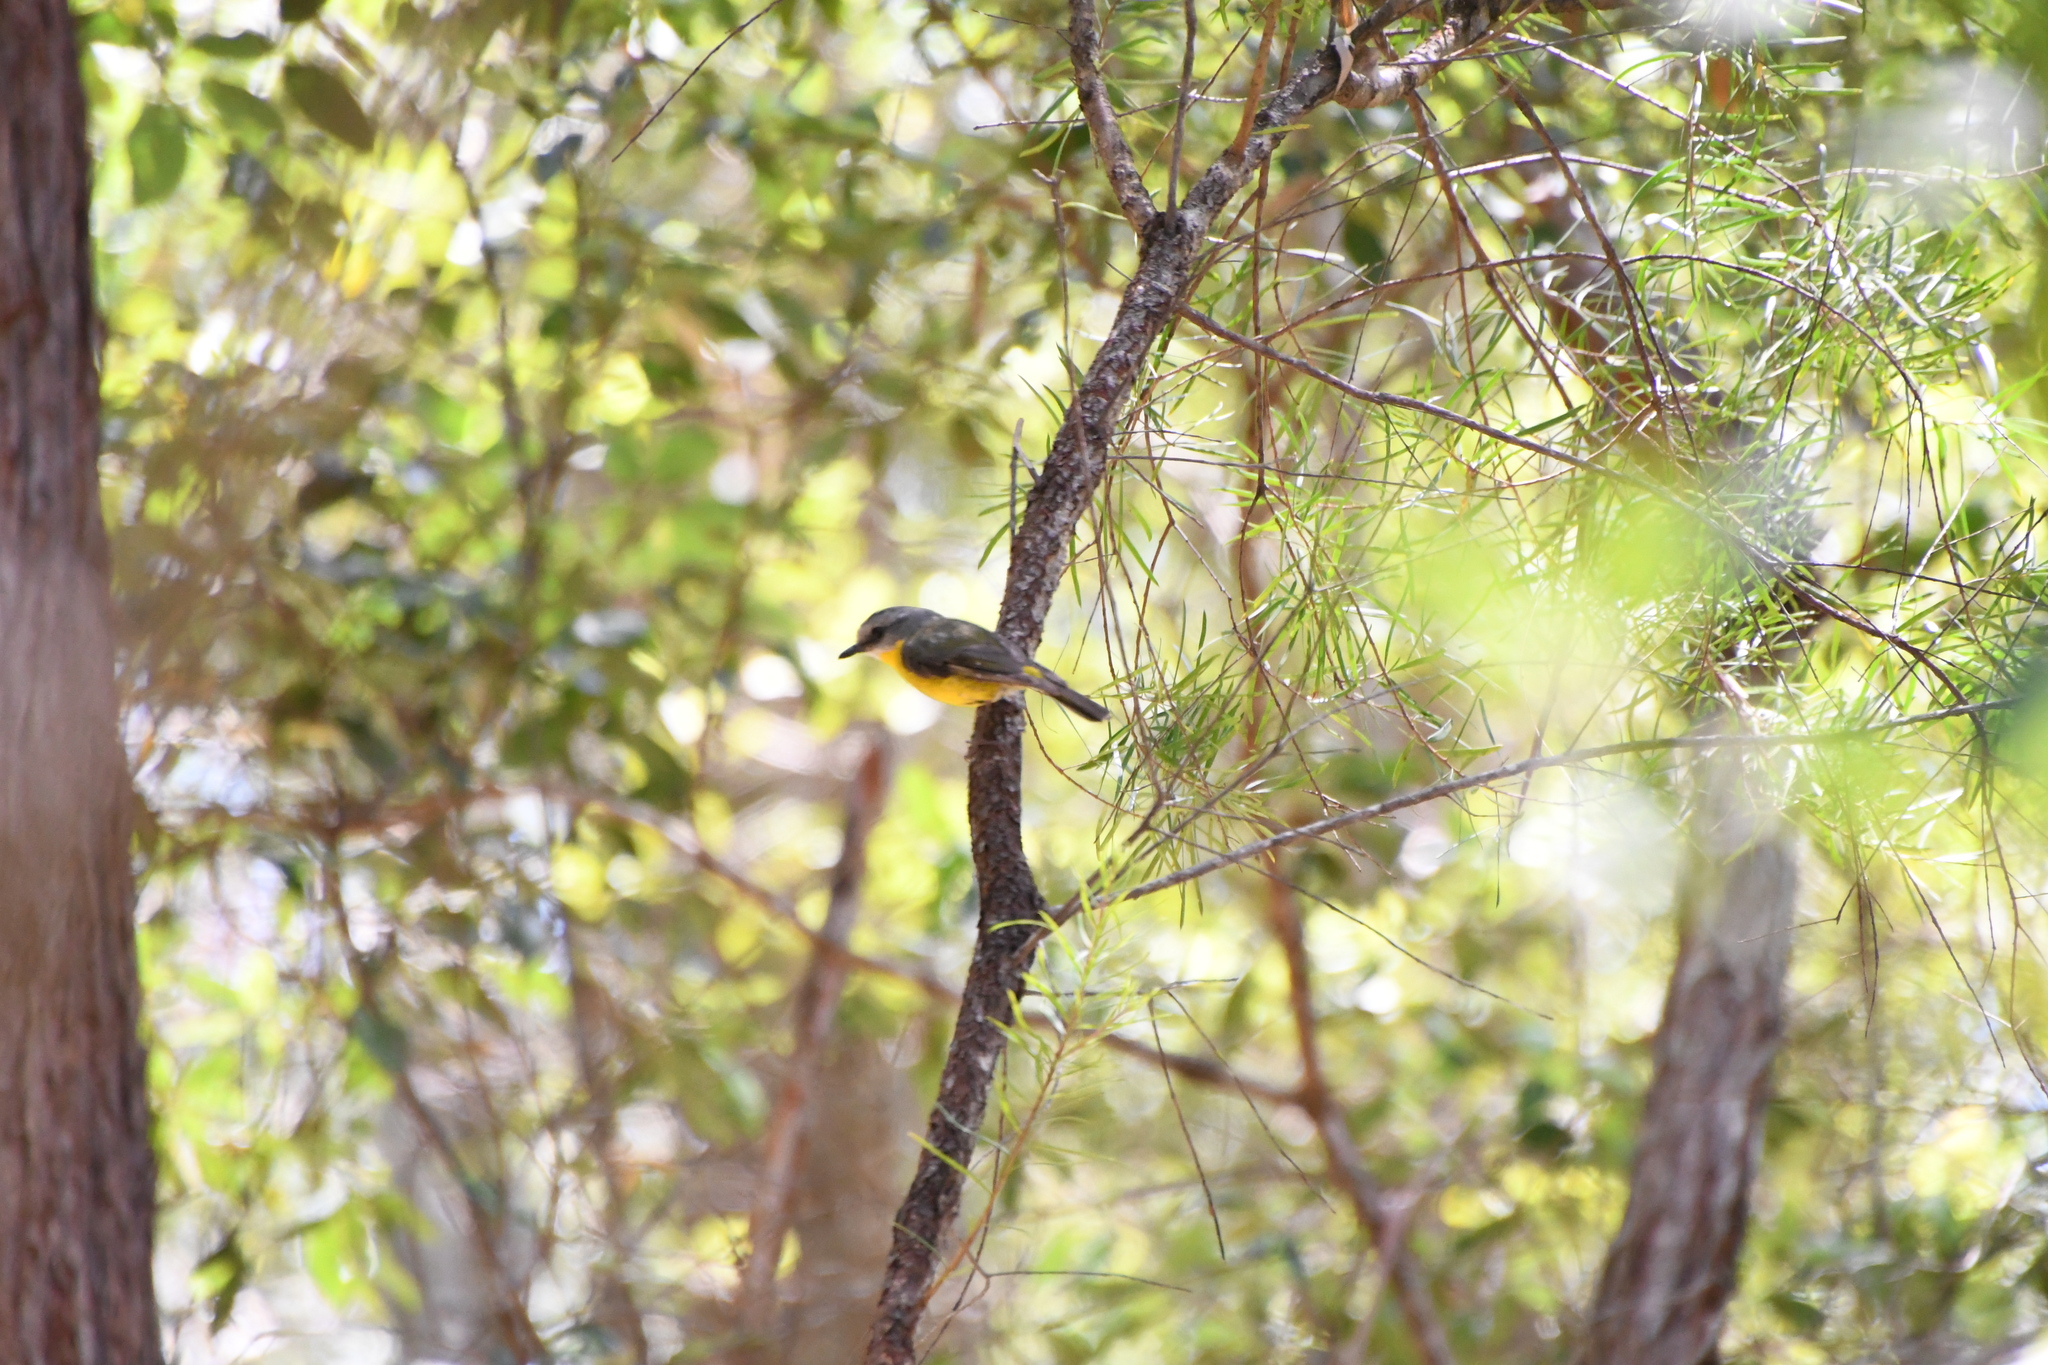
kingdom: Animalia
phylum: Chordata
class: Aves
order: Passeriformes
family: Petroicidae
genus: Eopsaltria
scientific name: Eopsaltria australis
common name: Eastern yellow robin
